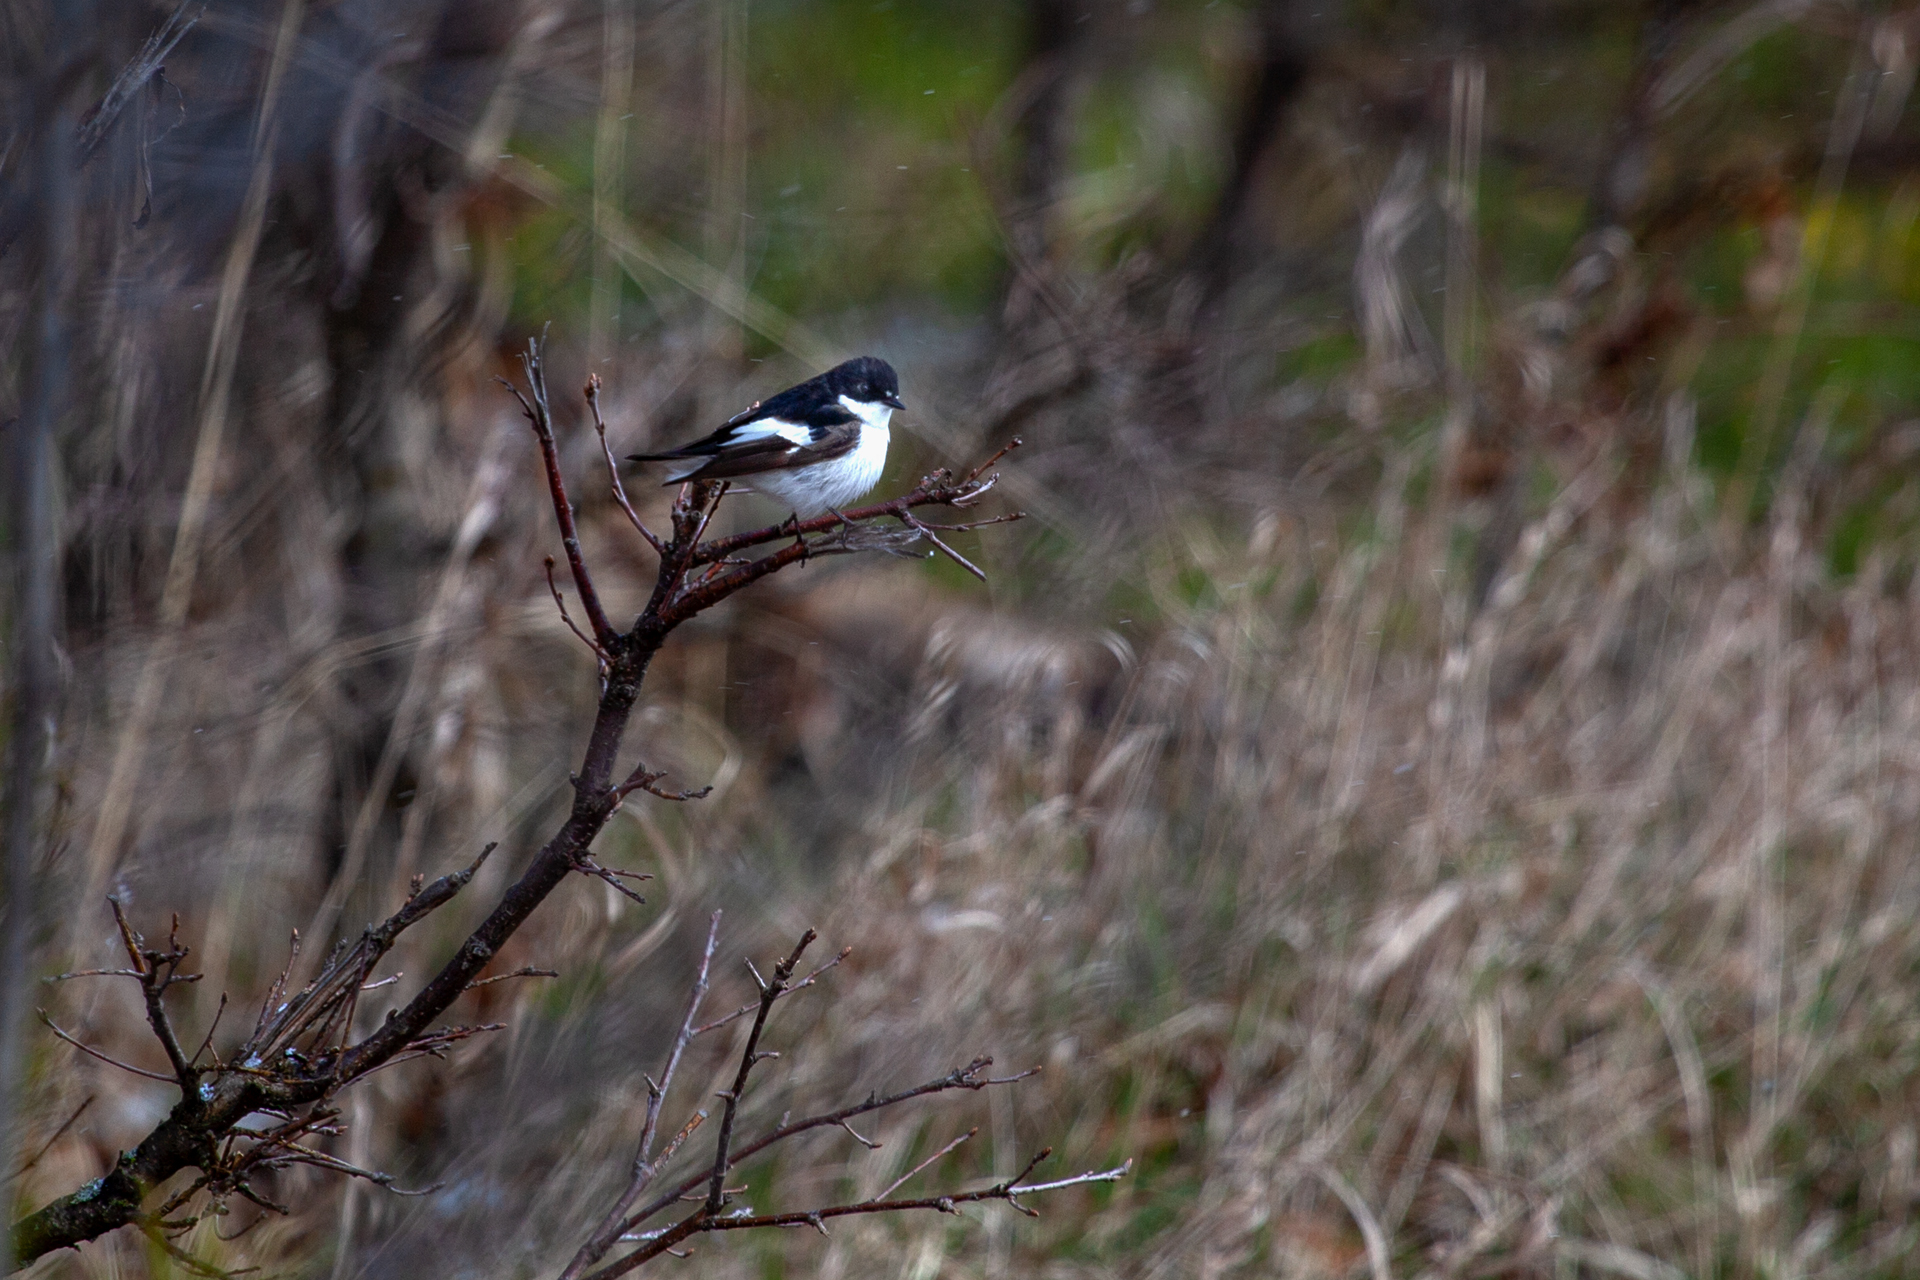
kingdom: Animalia
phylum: Chordata
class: Aves
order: Passeriformes
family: Muscicapidae
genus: Ficedula
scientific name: Ficedula hypoleuca
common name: European pied flycatcher
